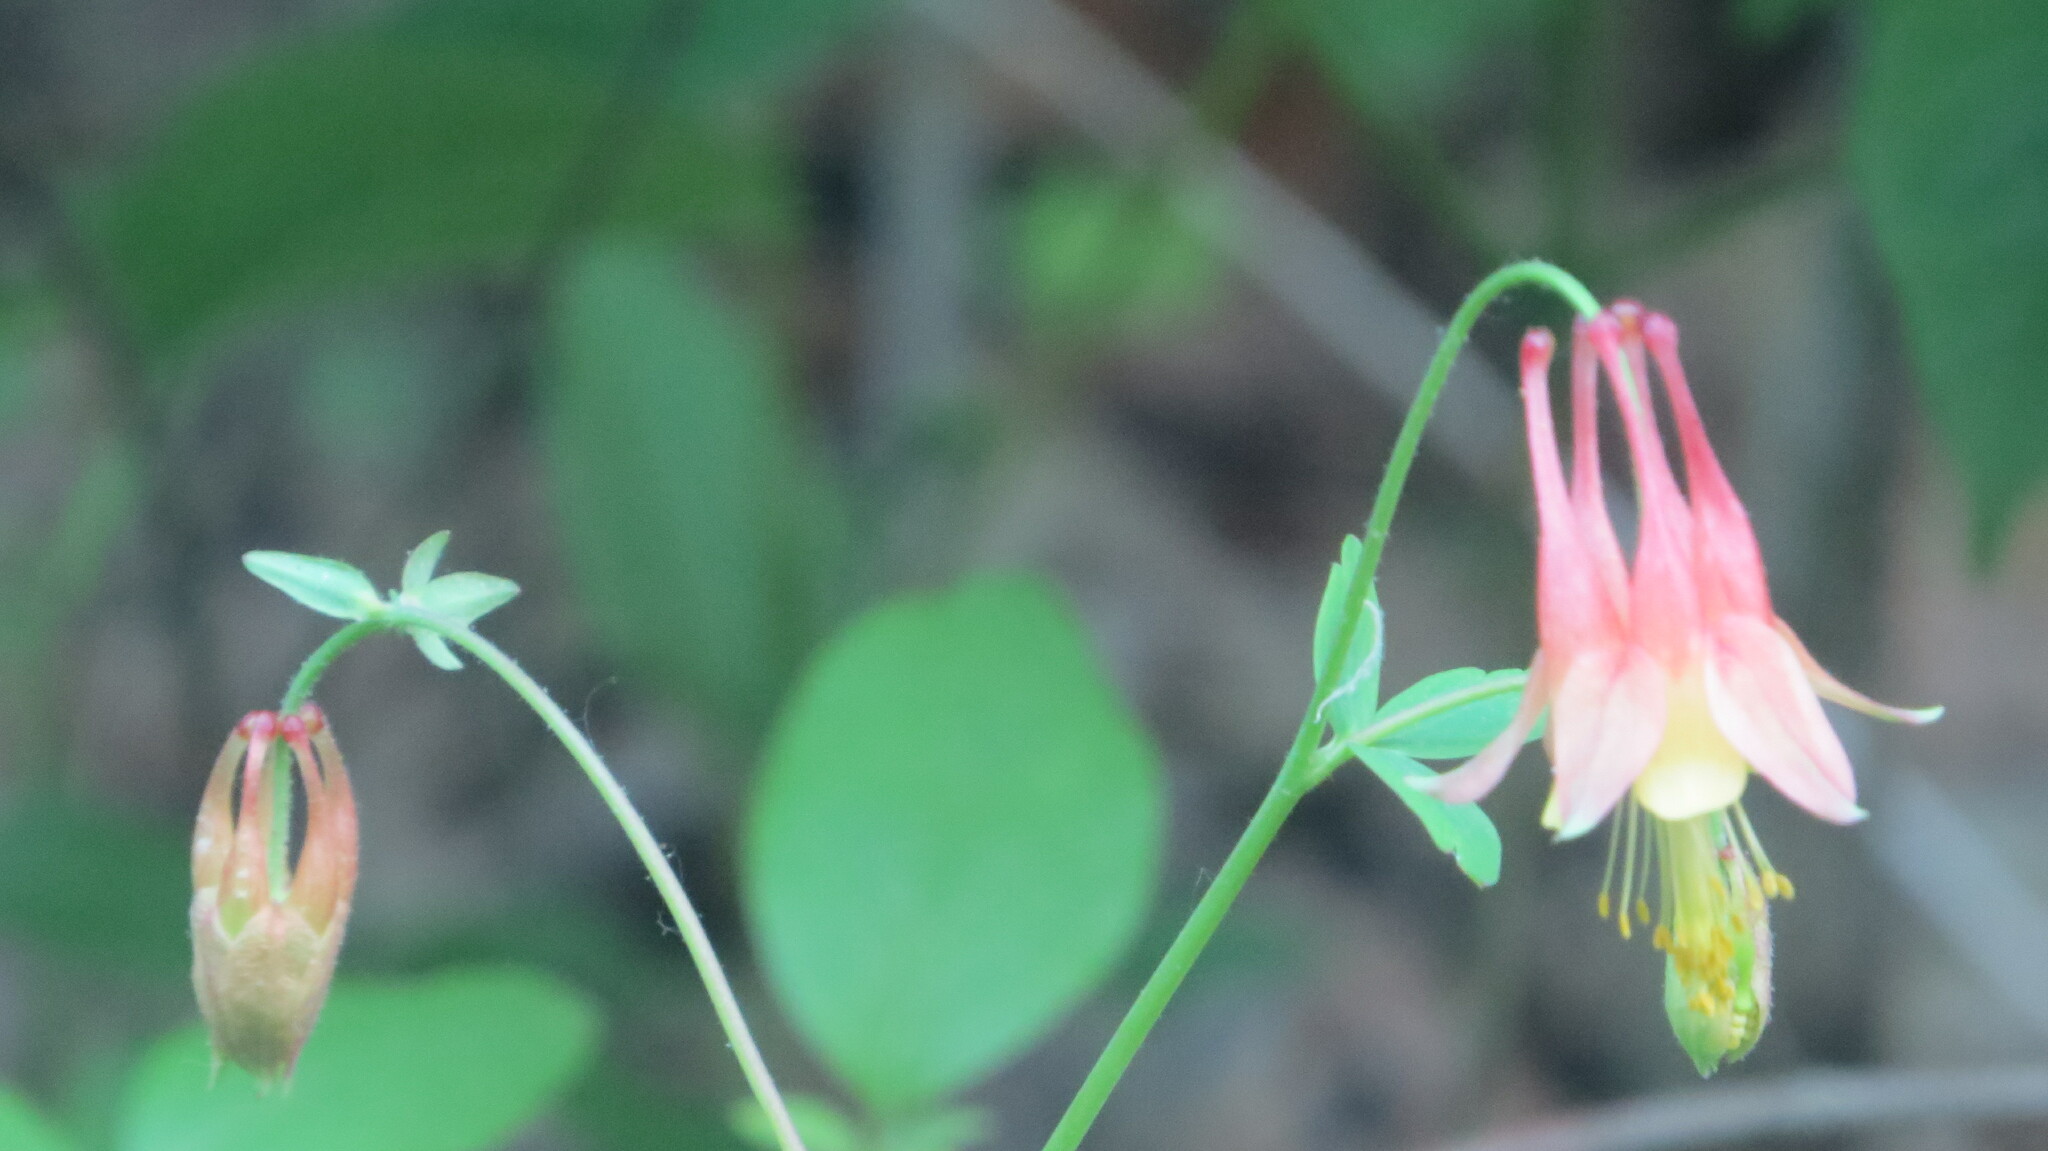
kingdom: Plantae
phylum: Tracheophyta
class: Magnoliopsida
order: Ranunculales
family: Ranunculaceae
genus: Aquilegia
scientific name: Aquilegia canadensis
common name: American columbine
